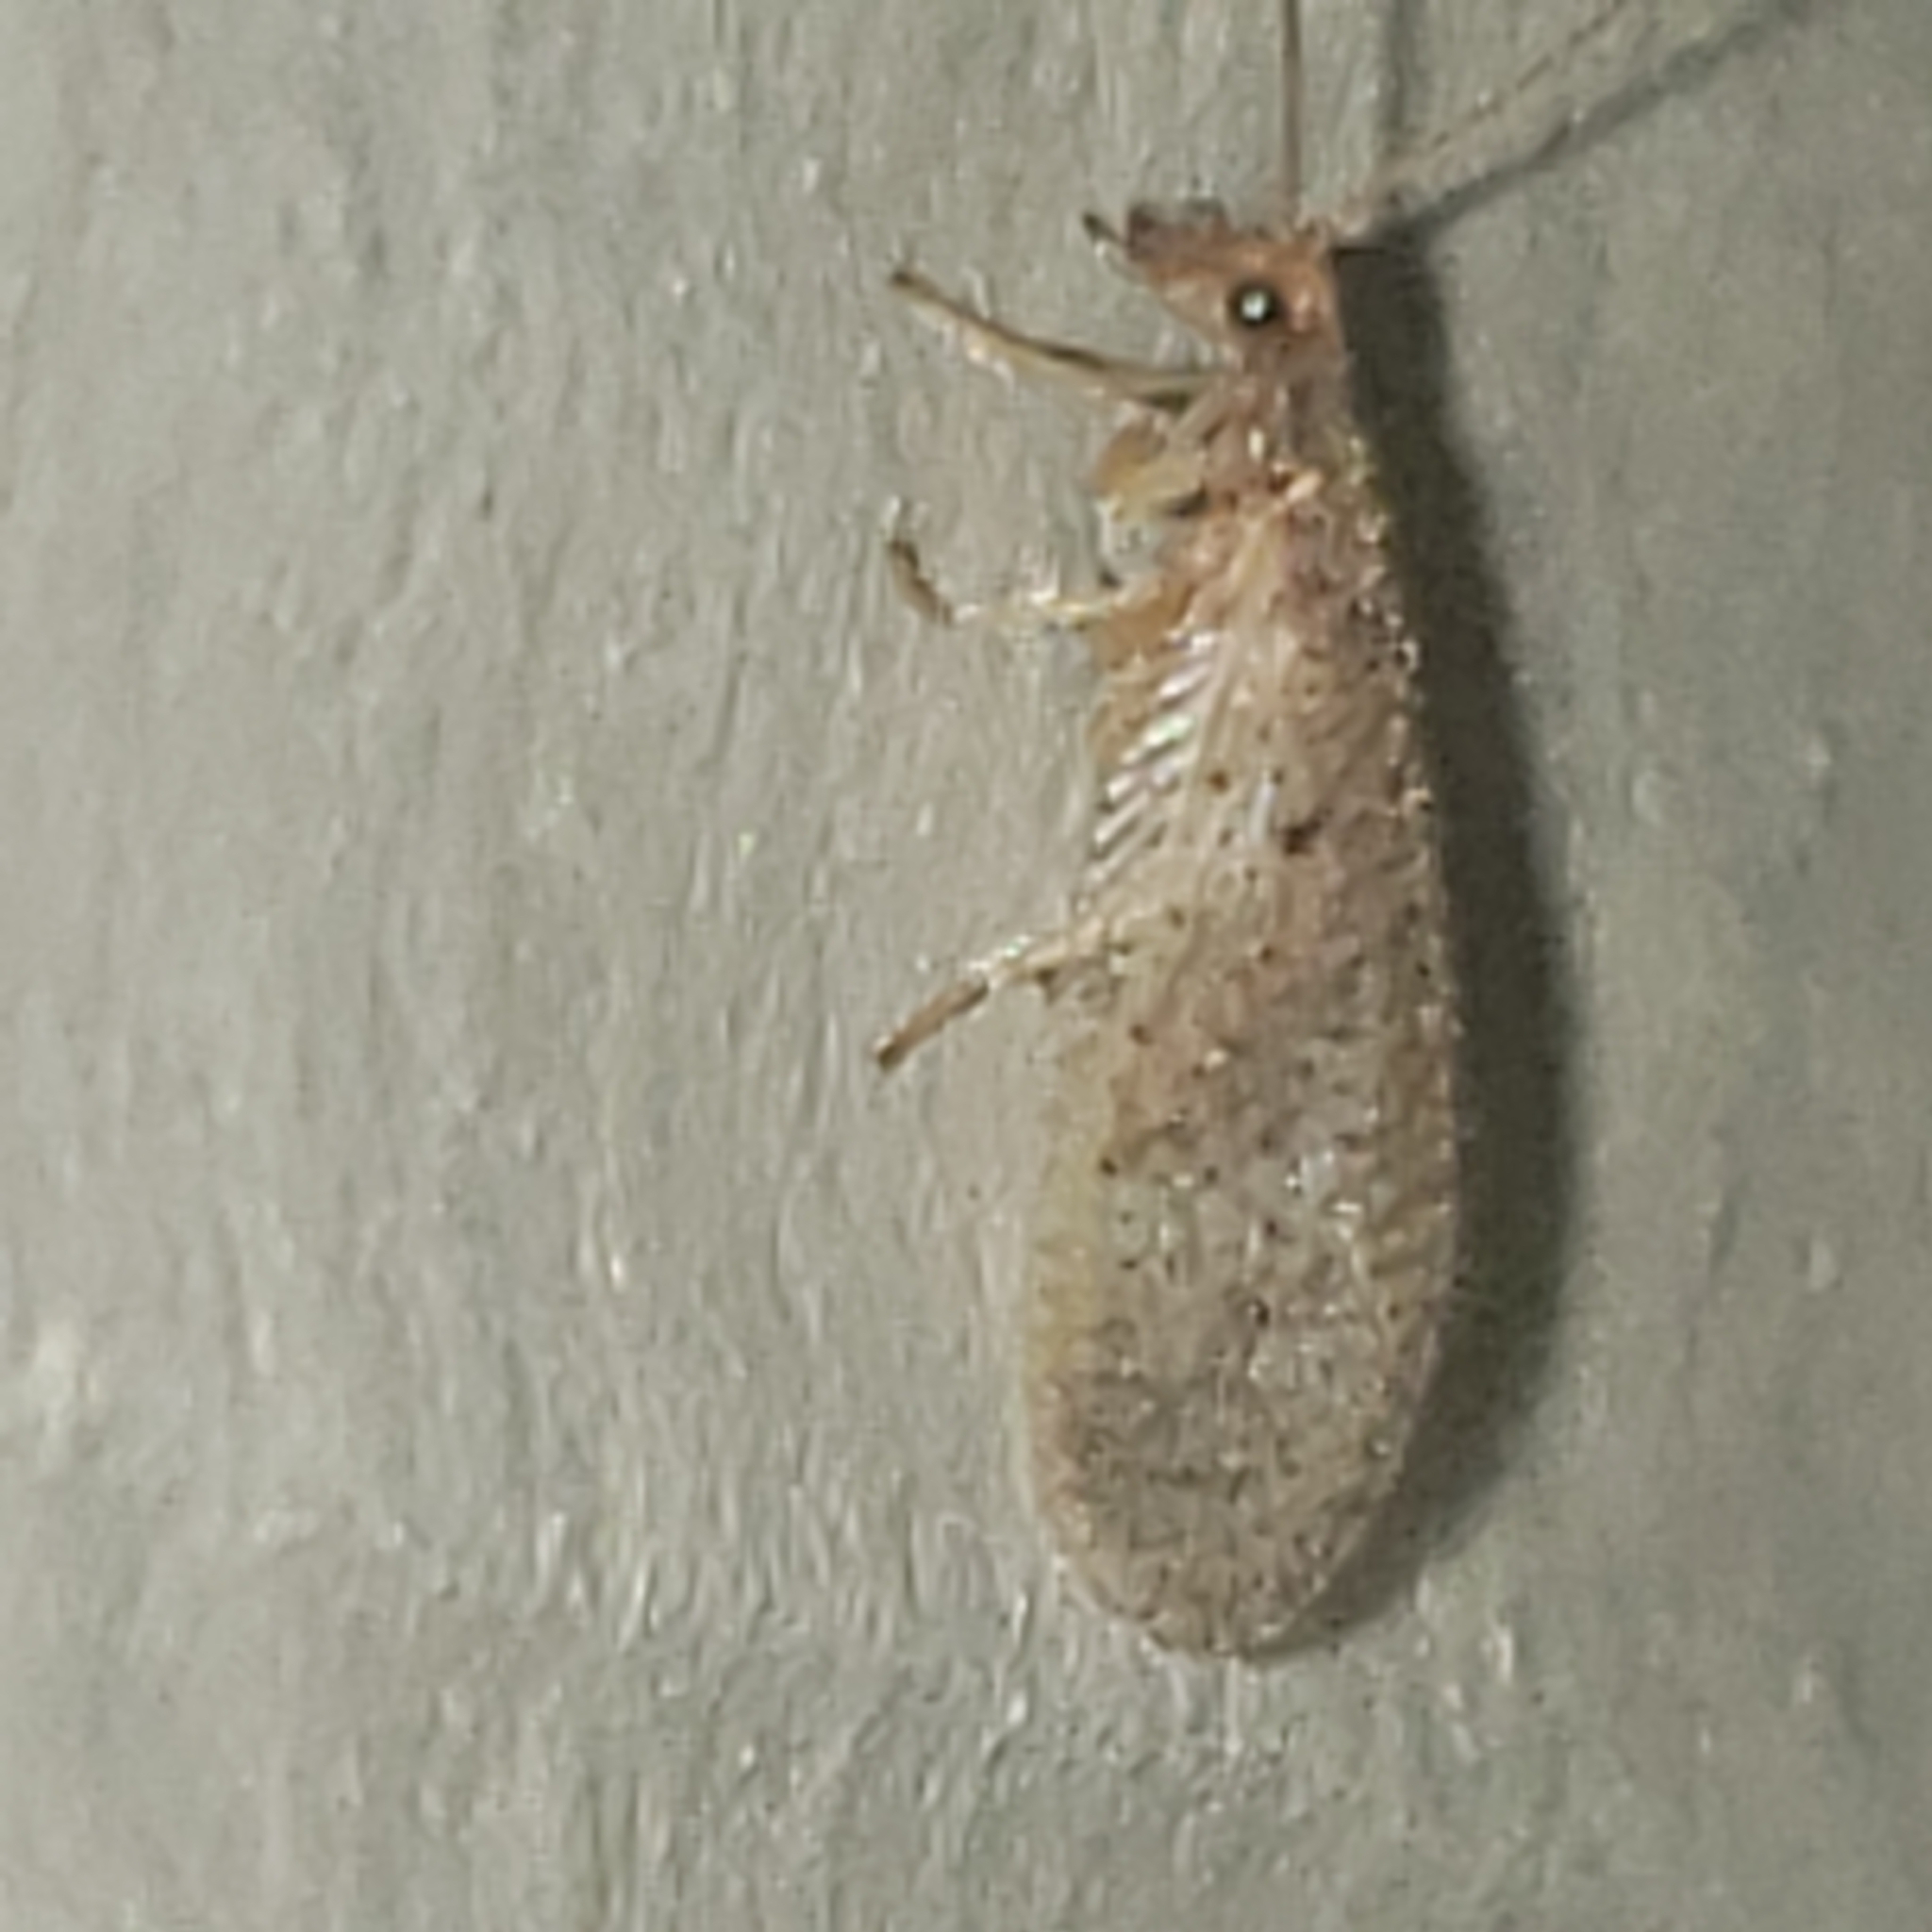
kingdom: Animalia
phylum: Arthropoda
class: Insecta
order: Neuroptera
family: Hemerobiidae
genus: Micromus
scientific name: Micromus subanticus
